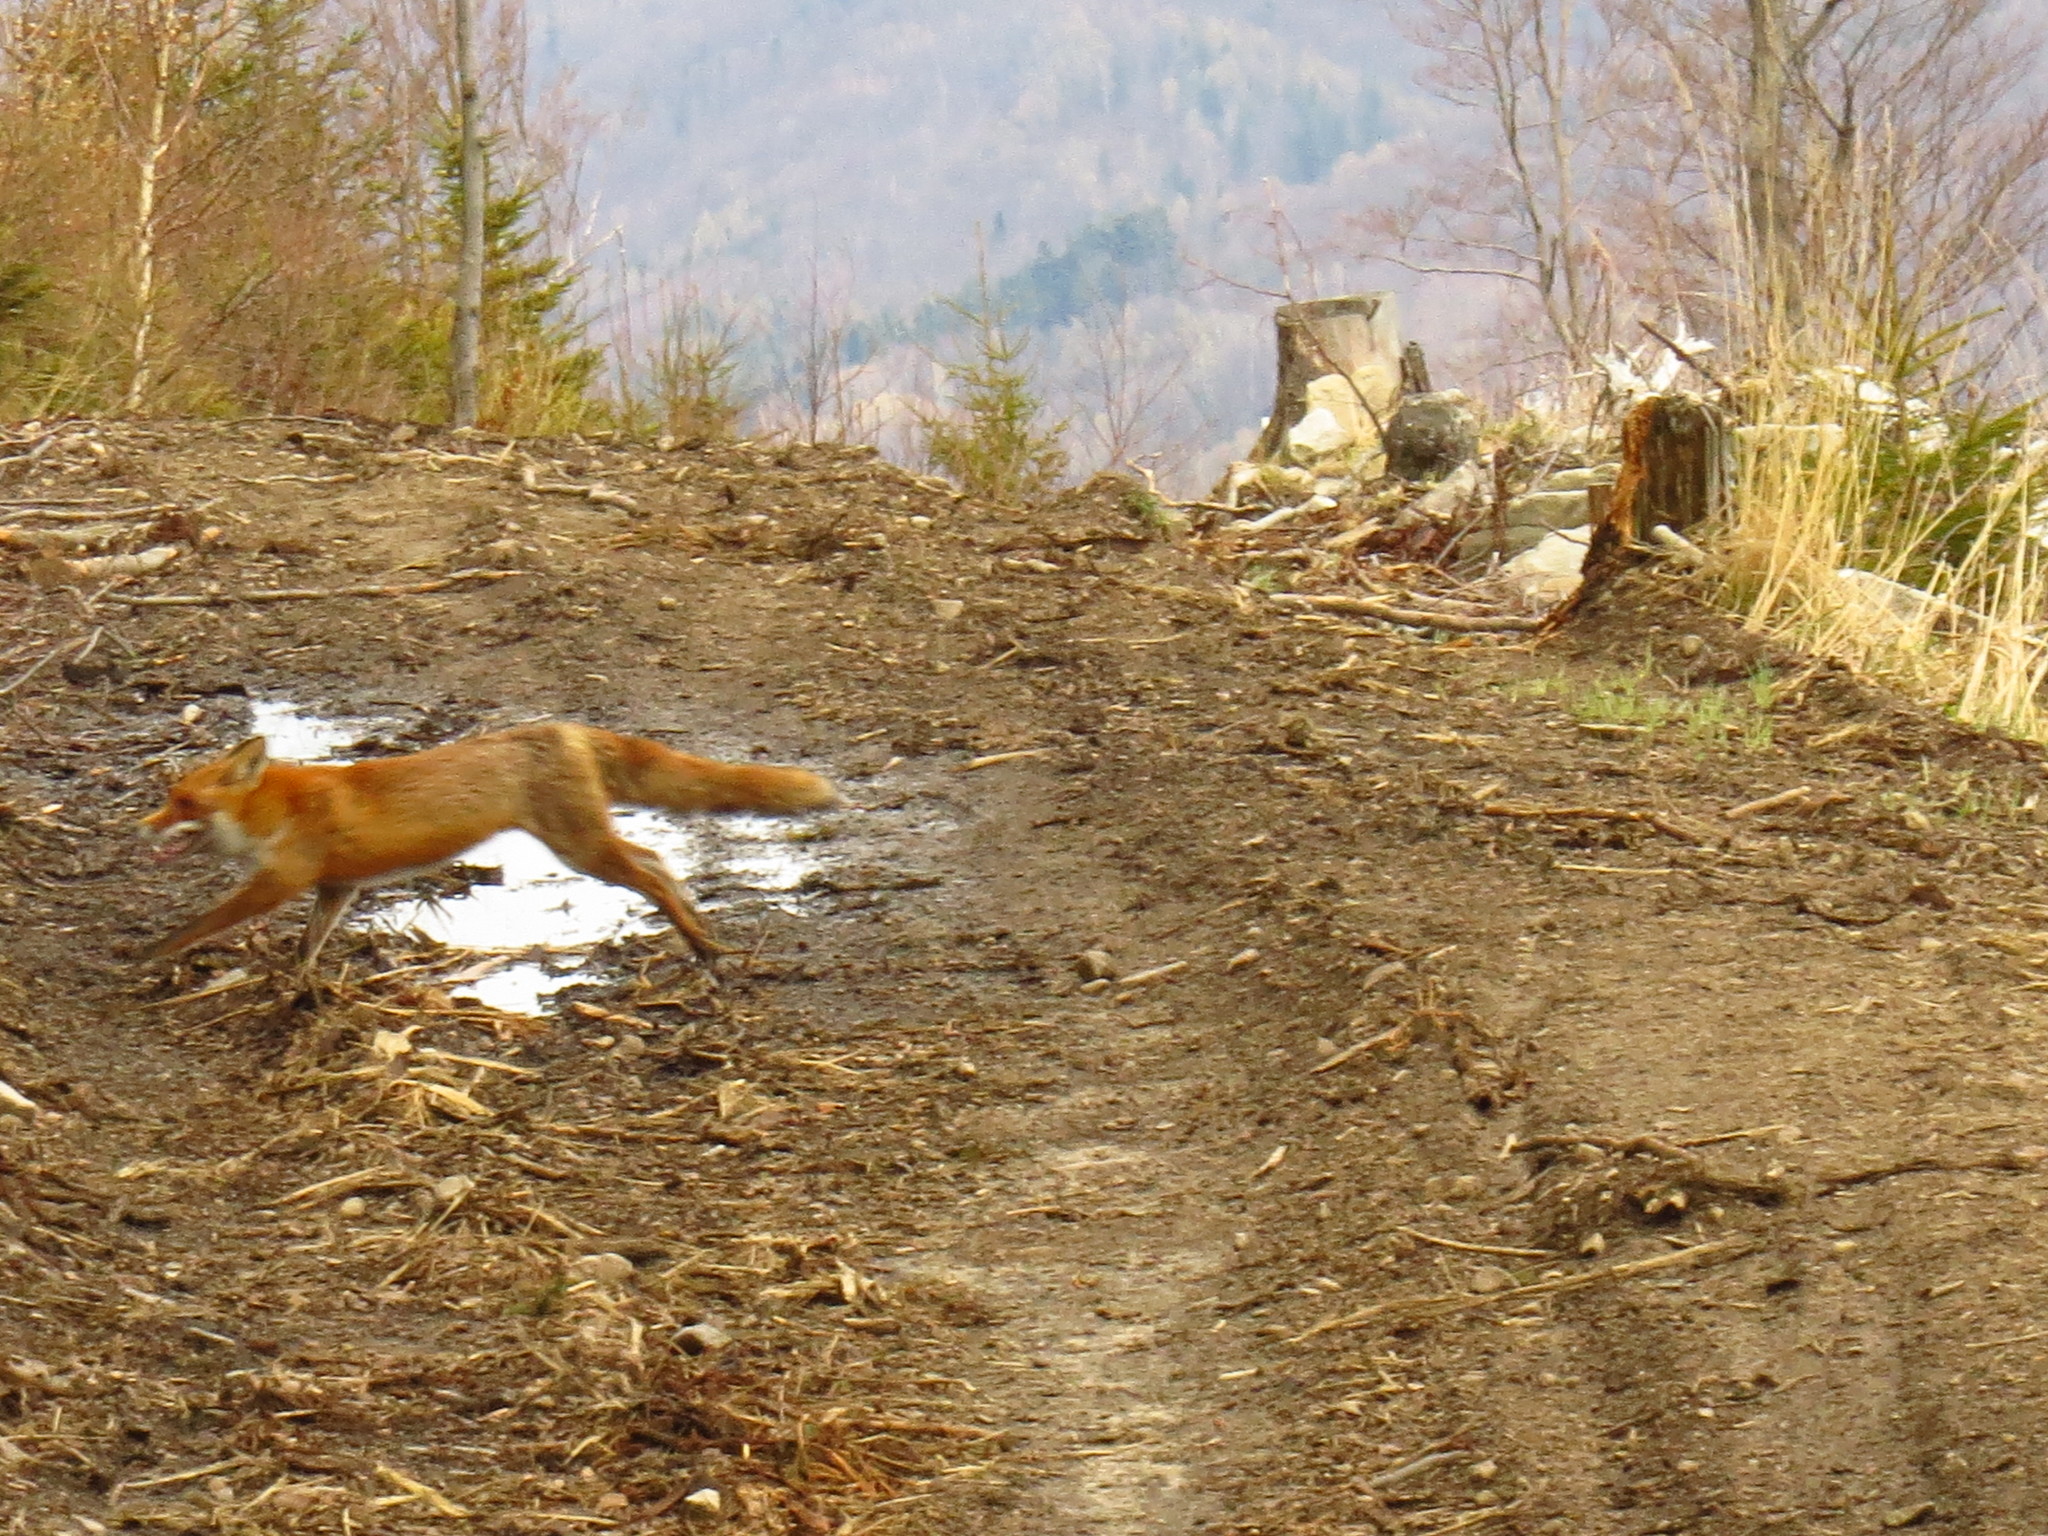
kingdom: Animalia
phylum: Chordata
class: Mammalia
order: Carnivora
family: Canidae
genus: Vulpes
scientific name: Vulpes vulpes
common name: Red fox
